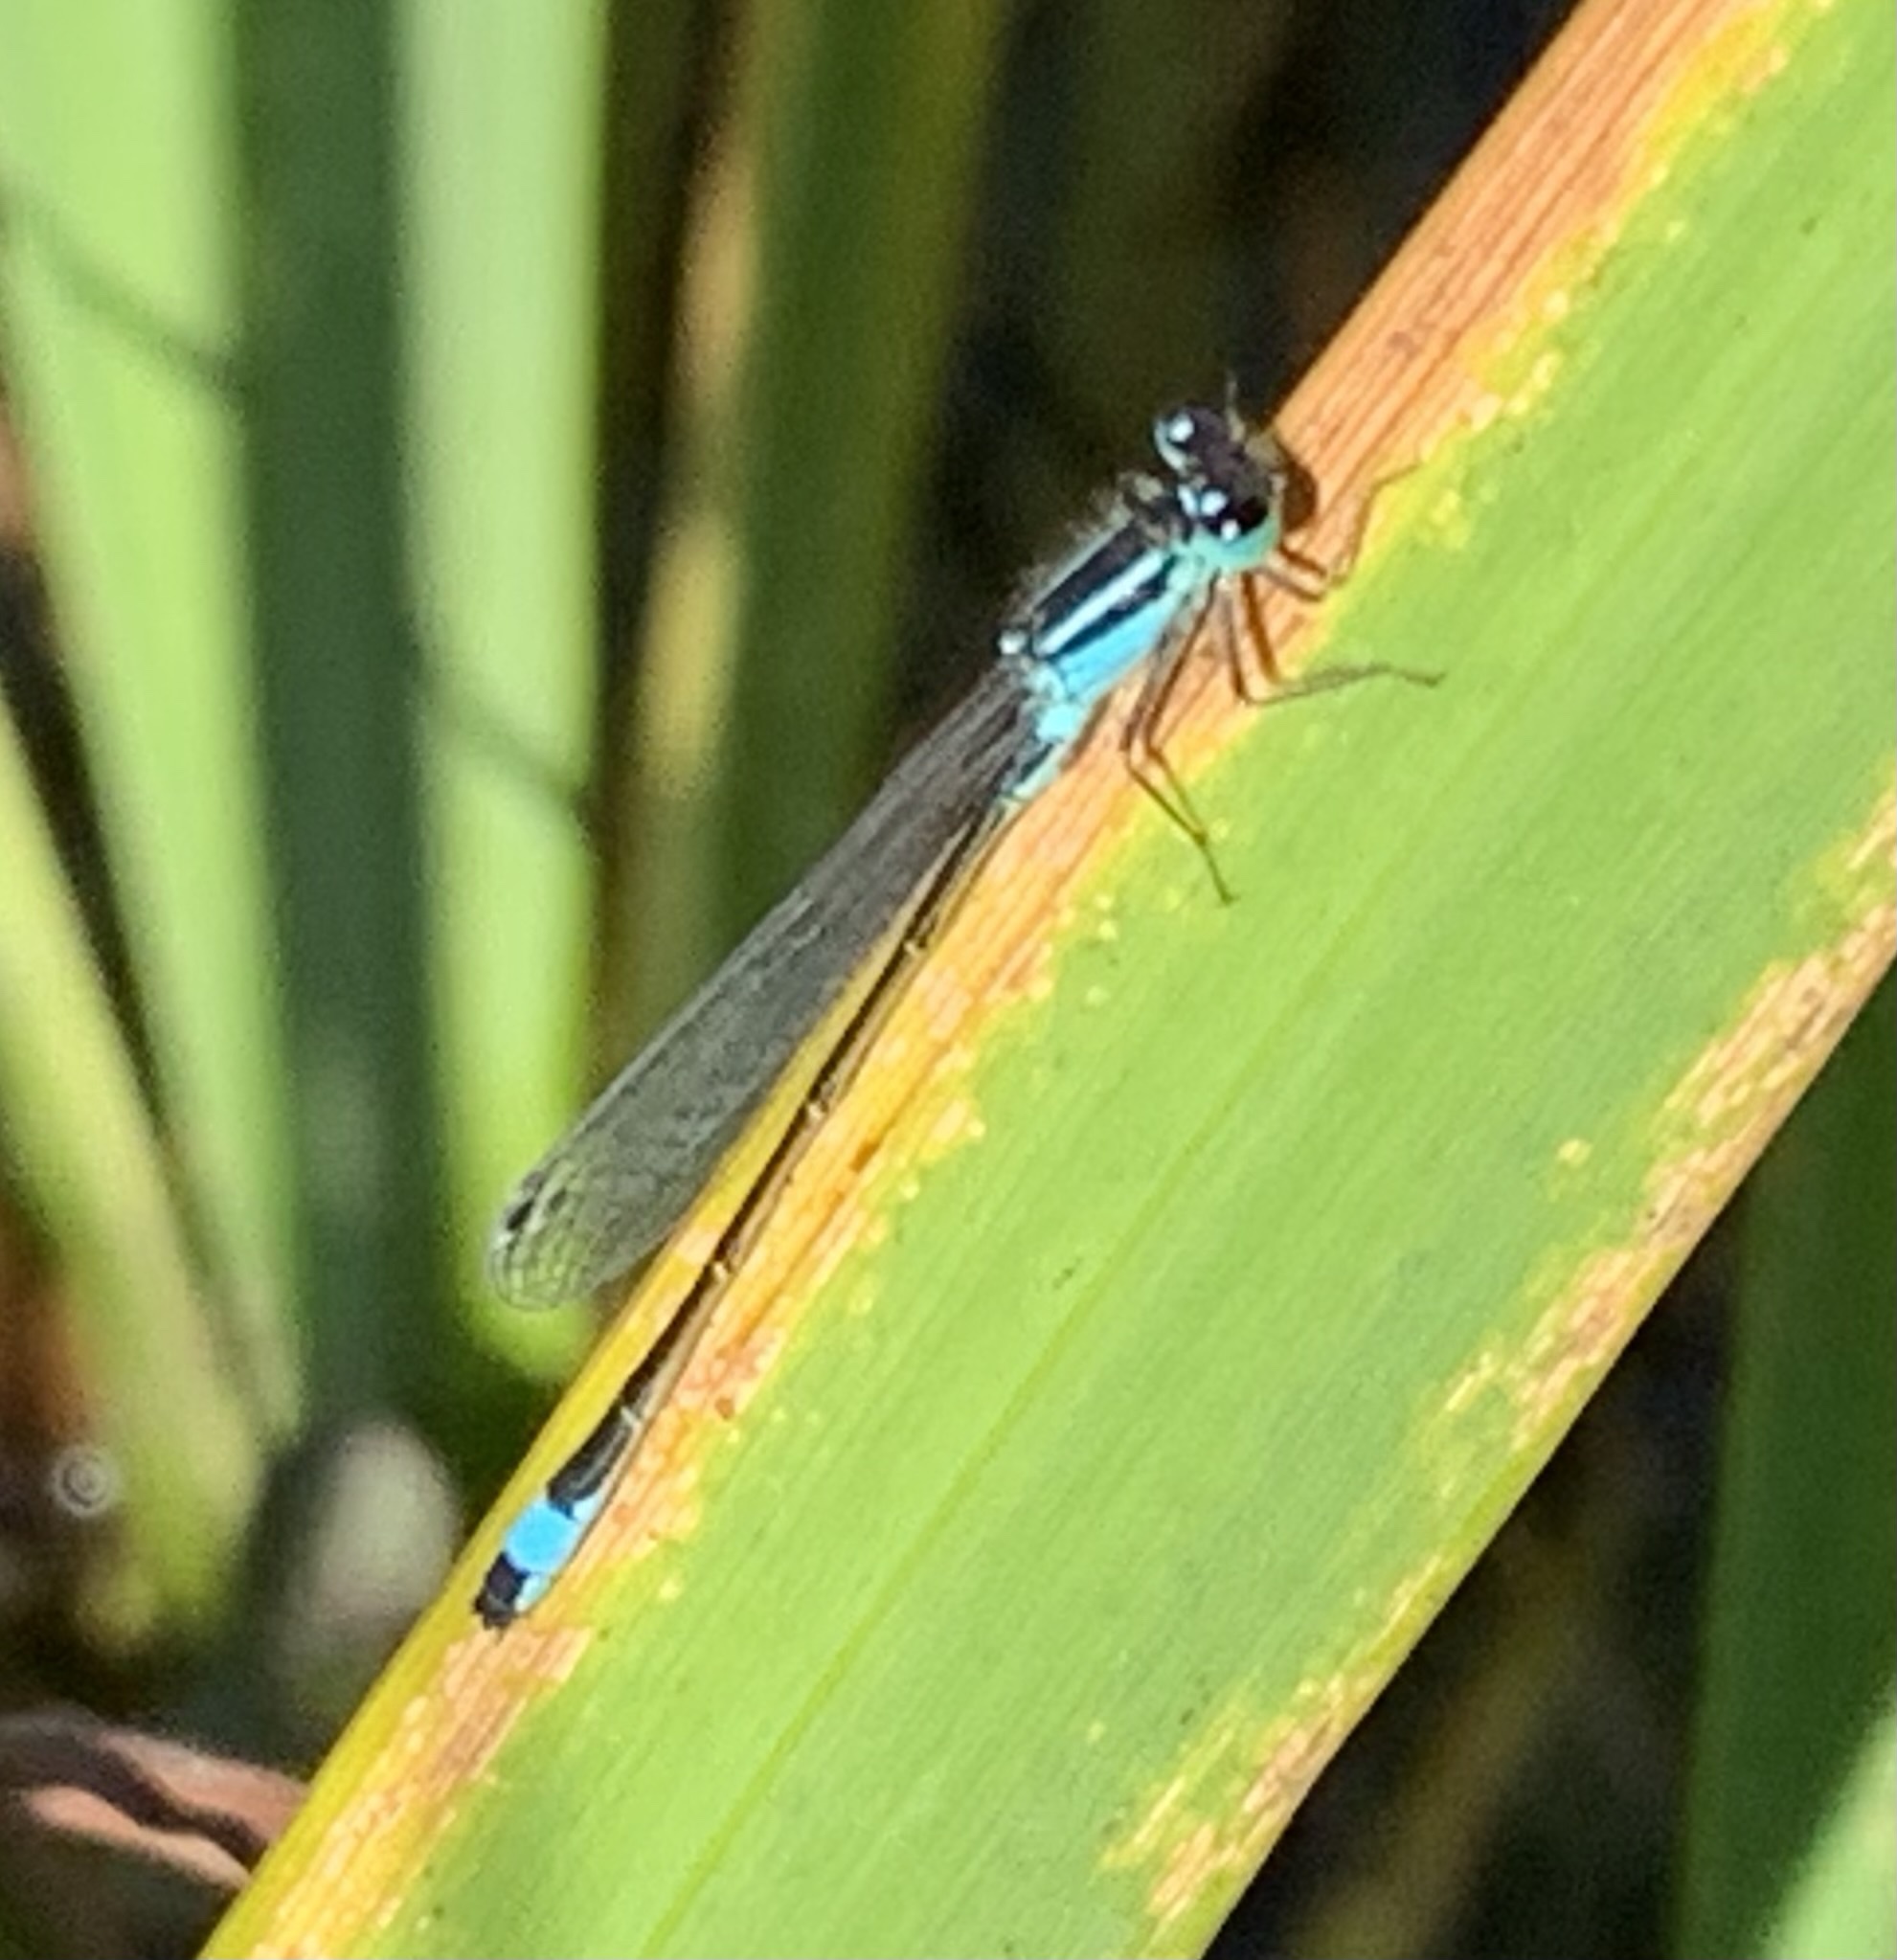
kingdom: Animalia
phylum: Arthropoda
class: Insecta
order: Odonata
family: Coenagrionidae
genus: Ischnura
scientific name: Ischnura elegans
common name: Blue-tailed damselfly
